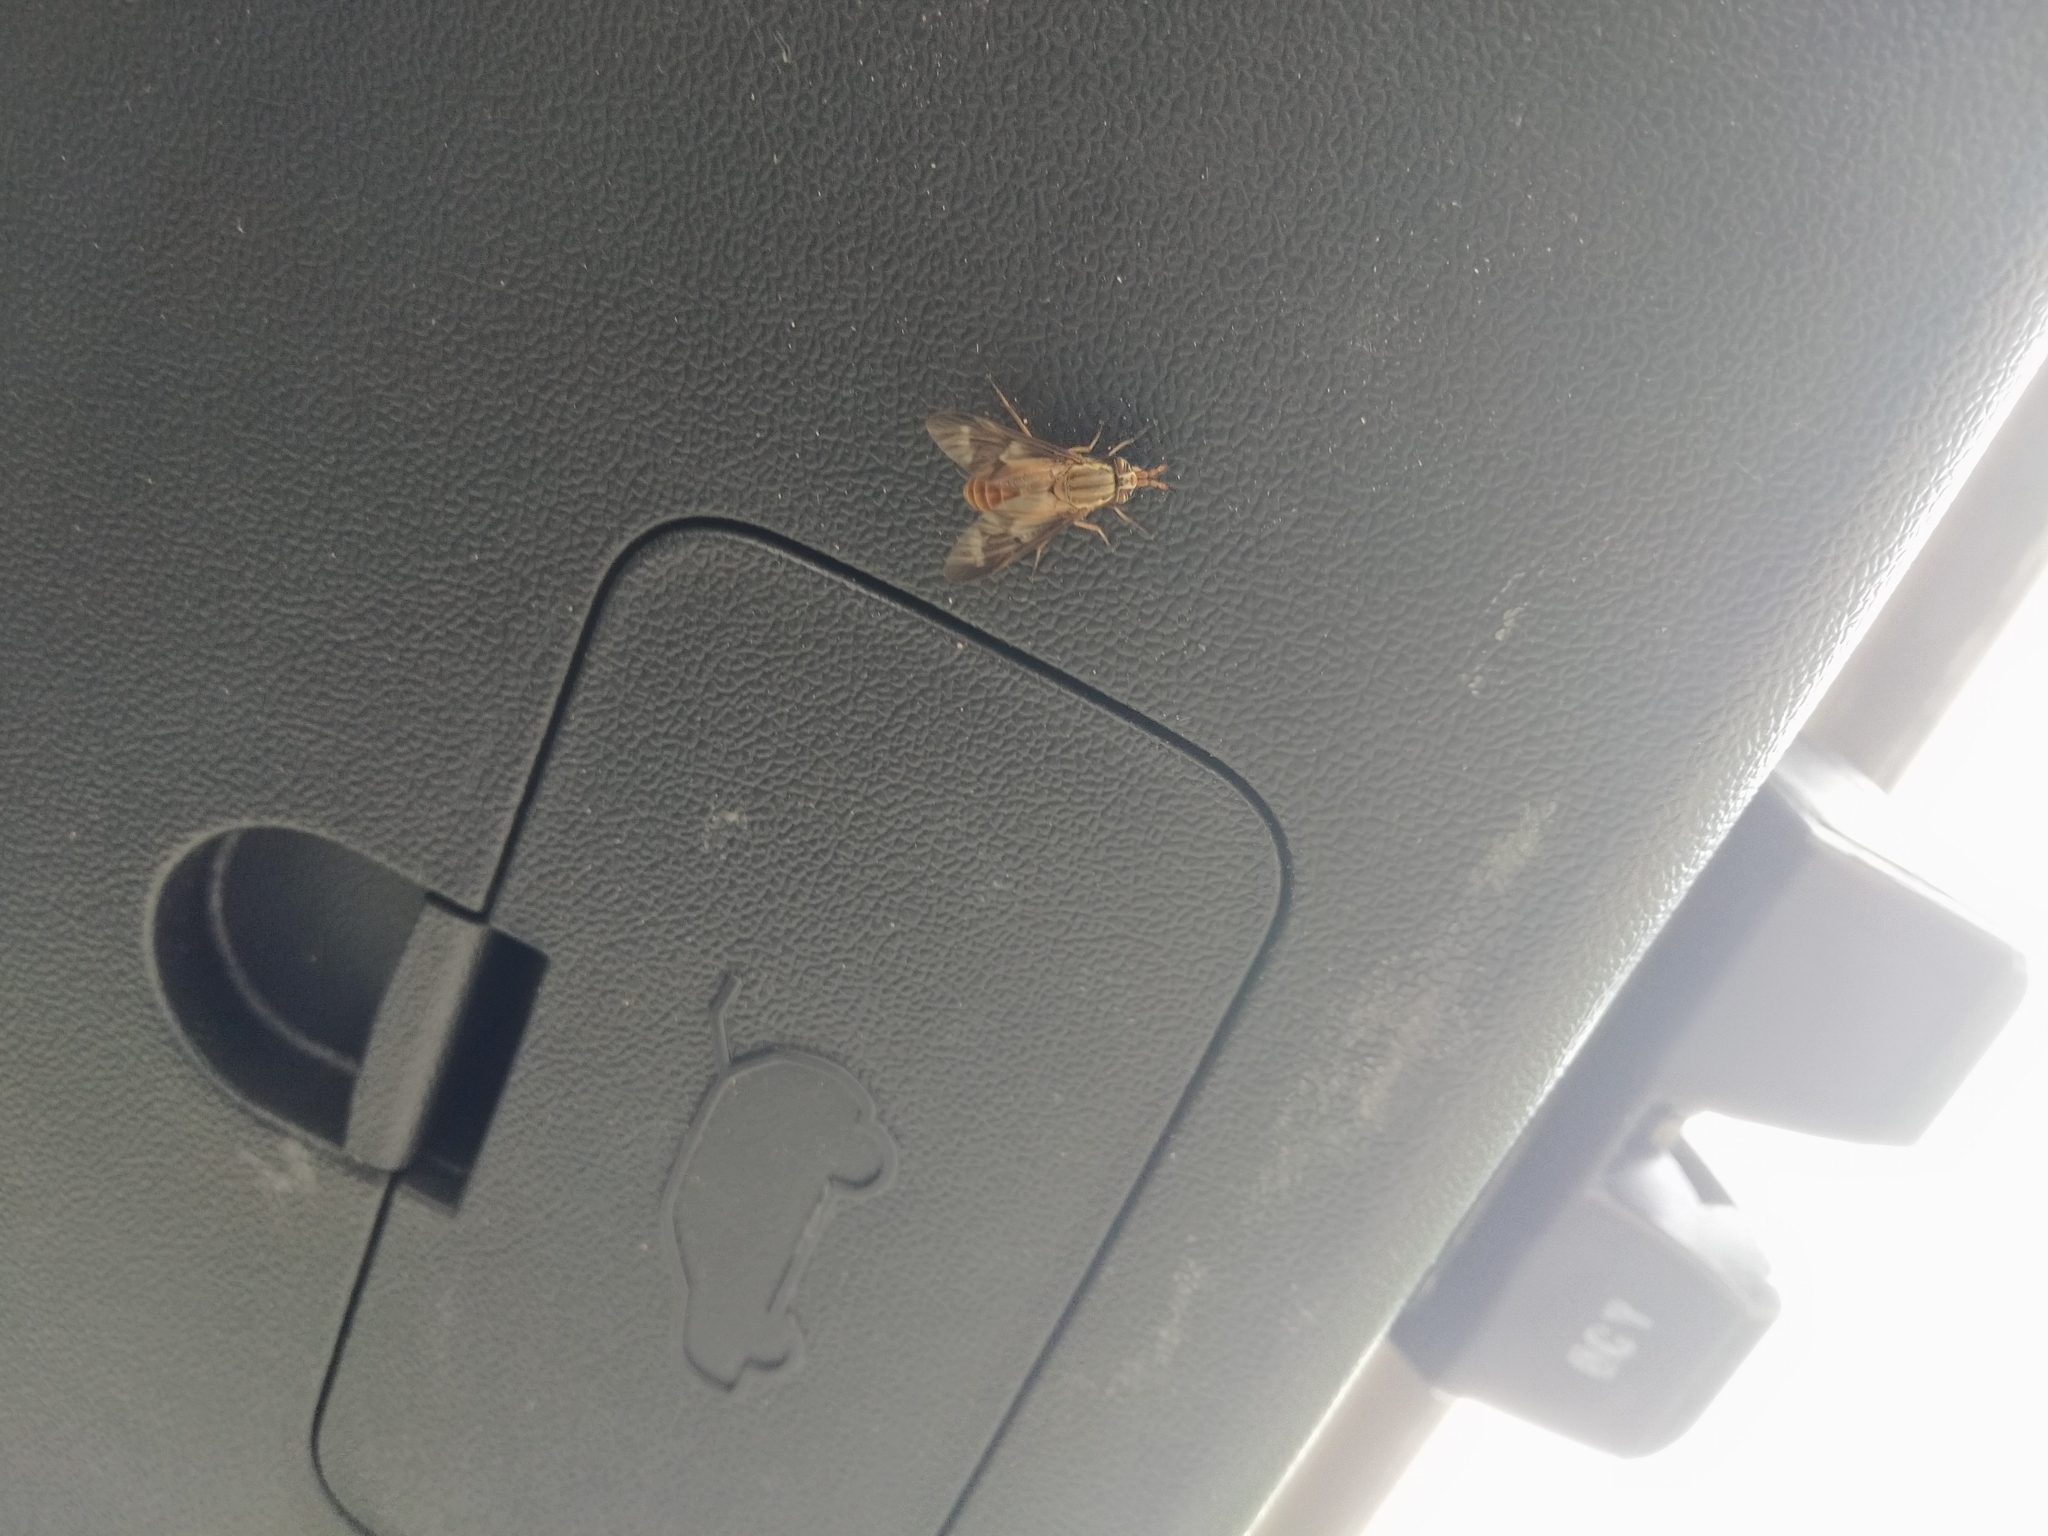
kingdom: Animalia
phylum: Arthropoda
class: Insecta
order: Diptera
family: Tabanidae
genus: Chrysops
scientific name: Chrysops brunneus
